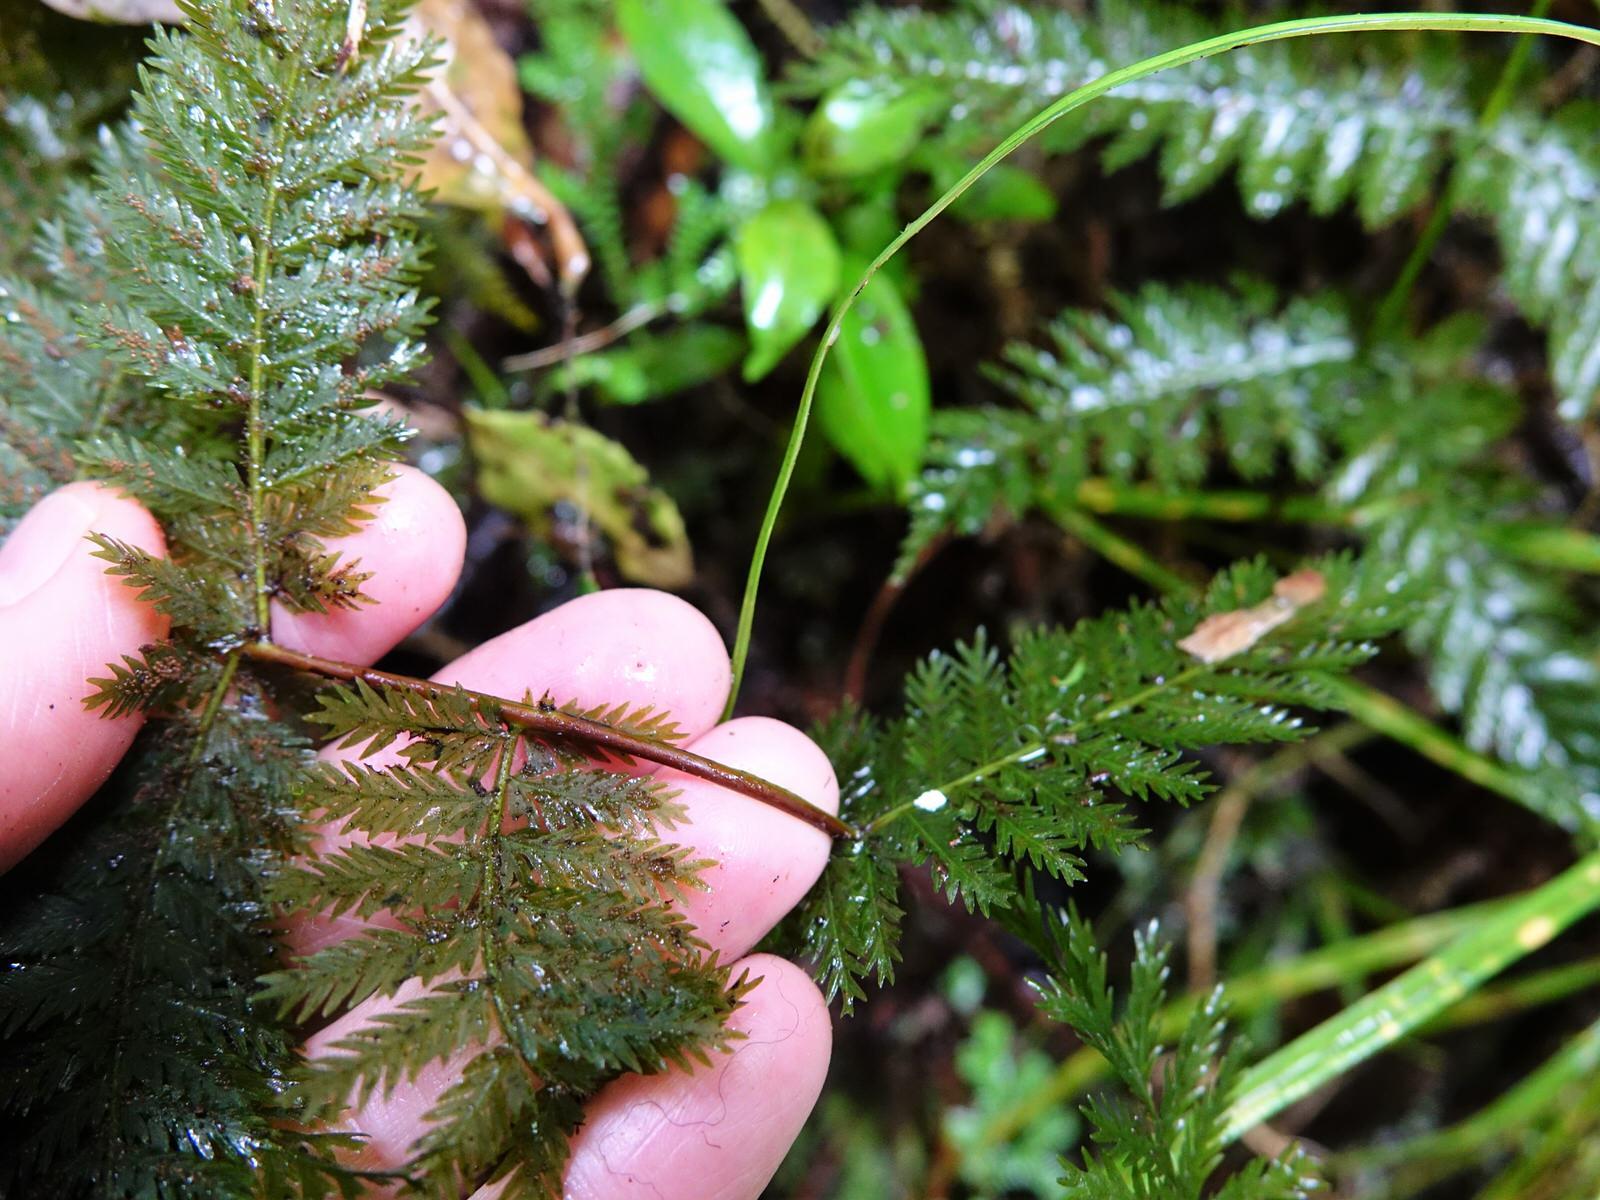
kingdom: Plantae
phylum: Tracheophyta
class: Polypodiopsida
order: Osmundales
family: Osmundaceae
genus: Leptopteris
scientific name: Leptopteris hymenophylloides
